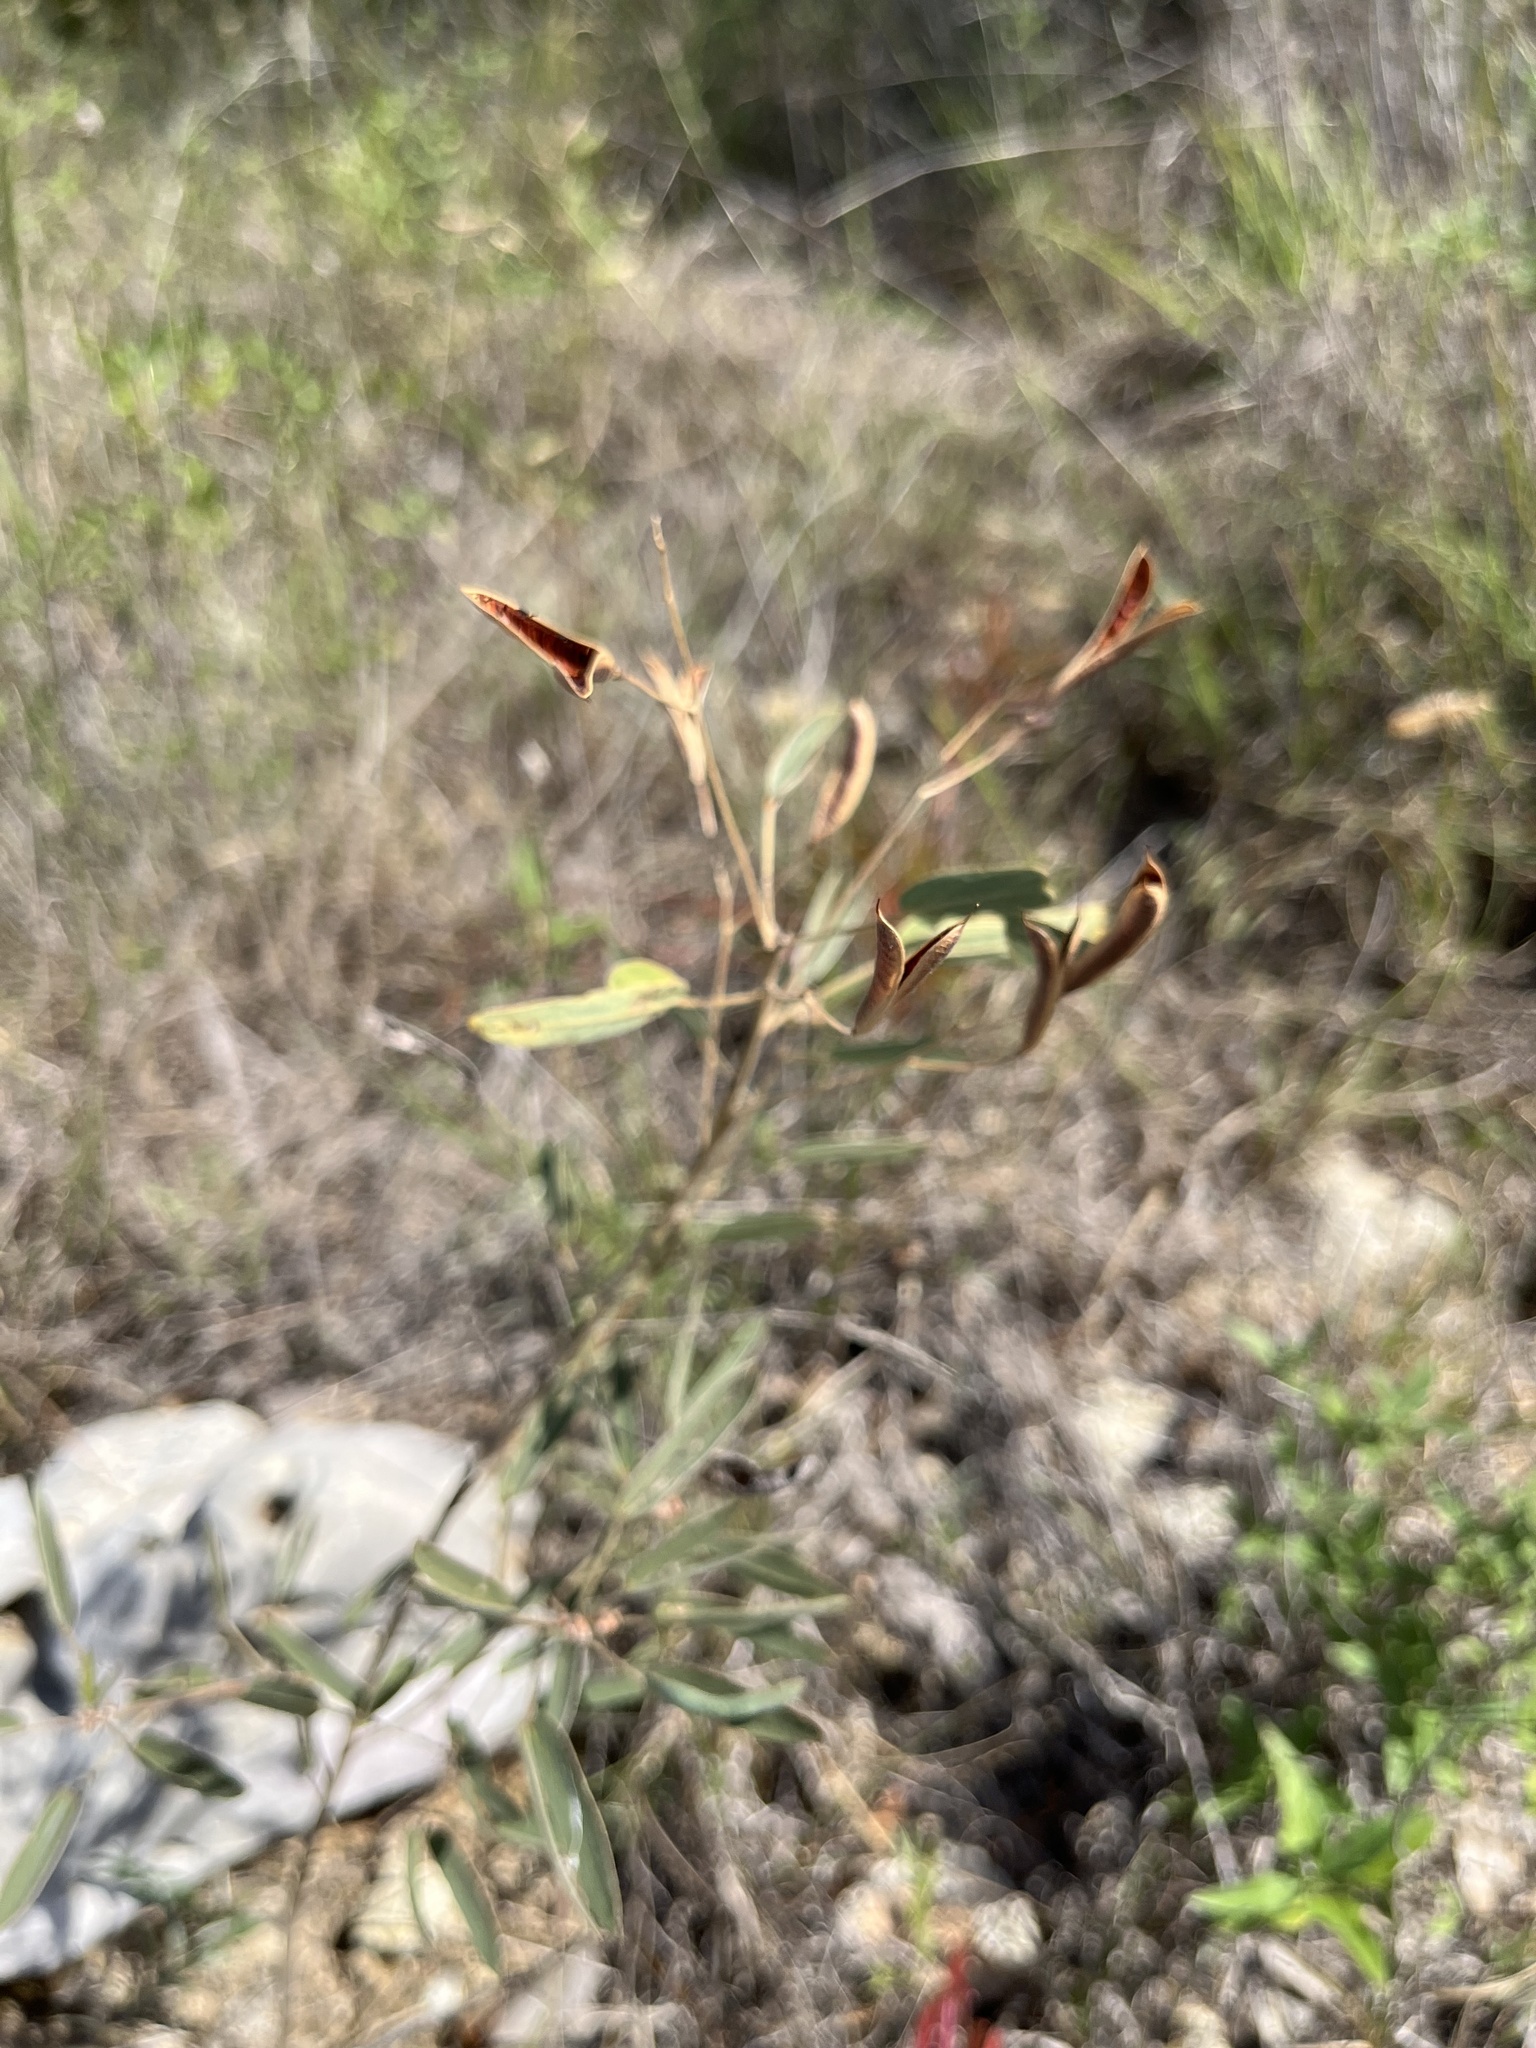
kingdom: Plantae
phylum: Tracheophyta
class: Magnoliopsida
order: Fabales
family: Fabaceae
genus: Senna
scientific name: Senna roemeriana
